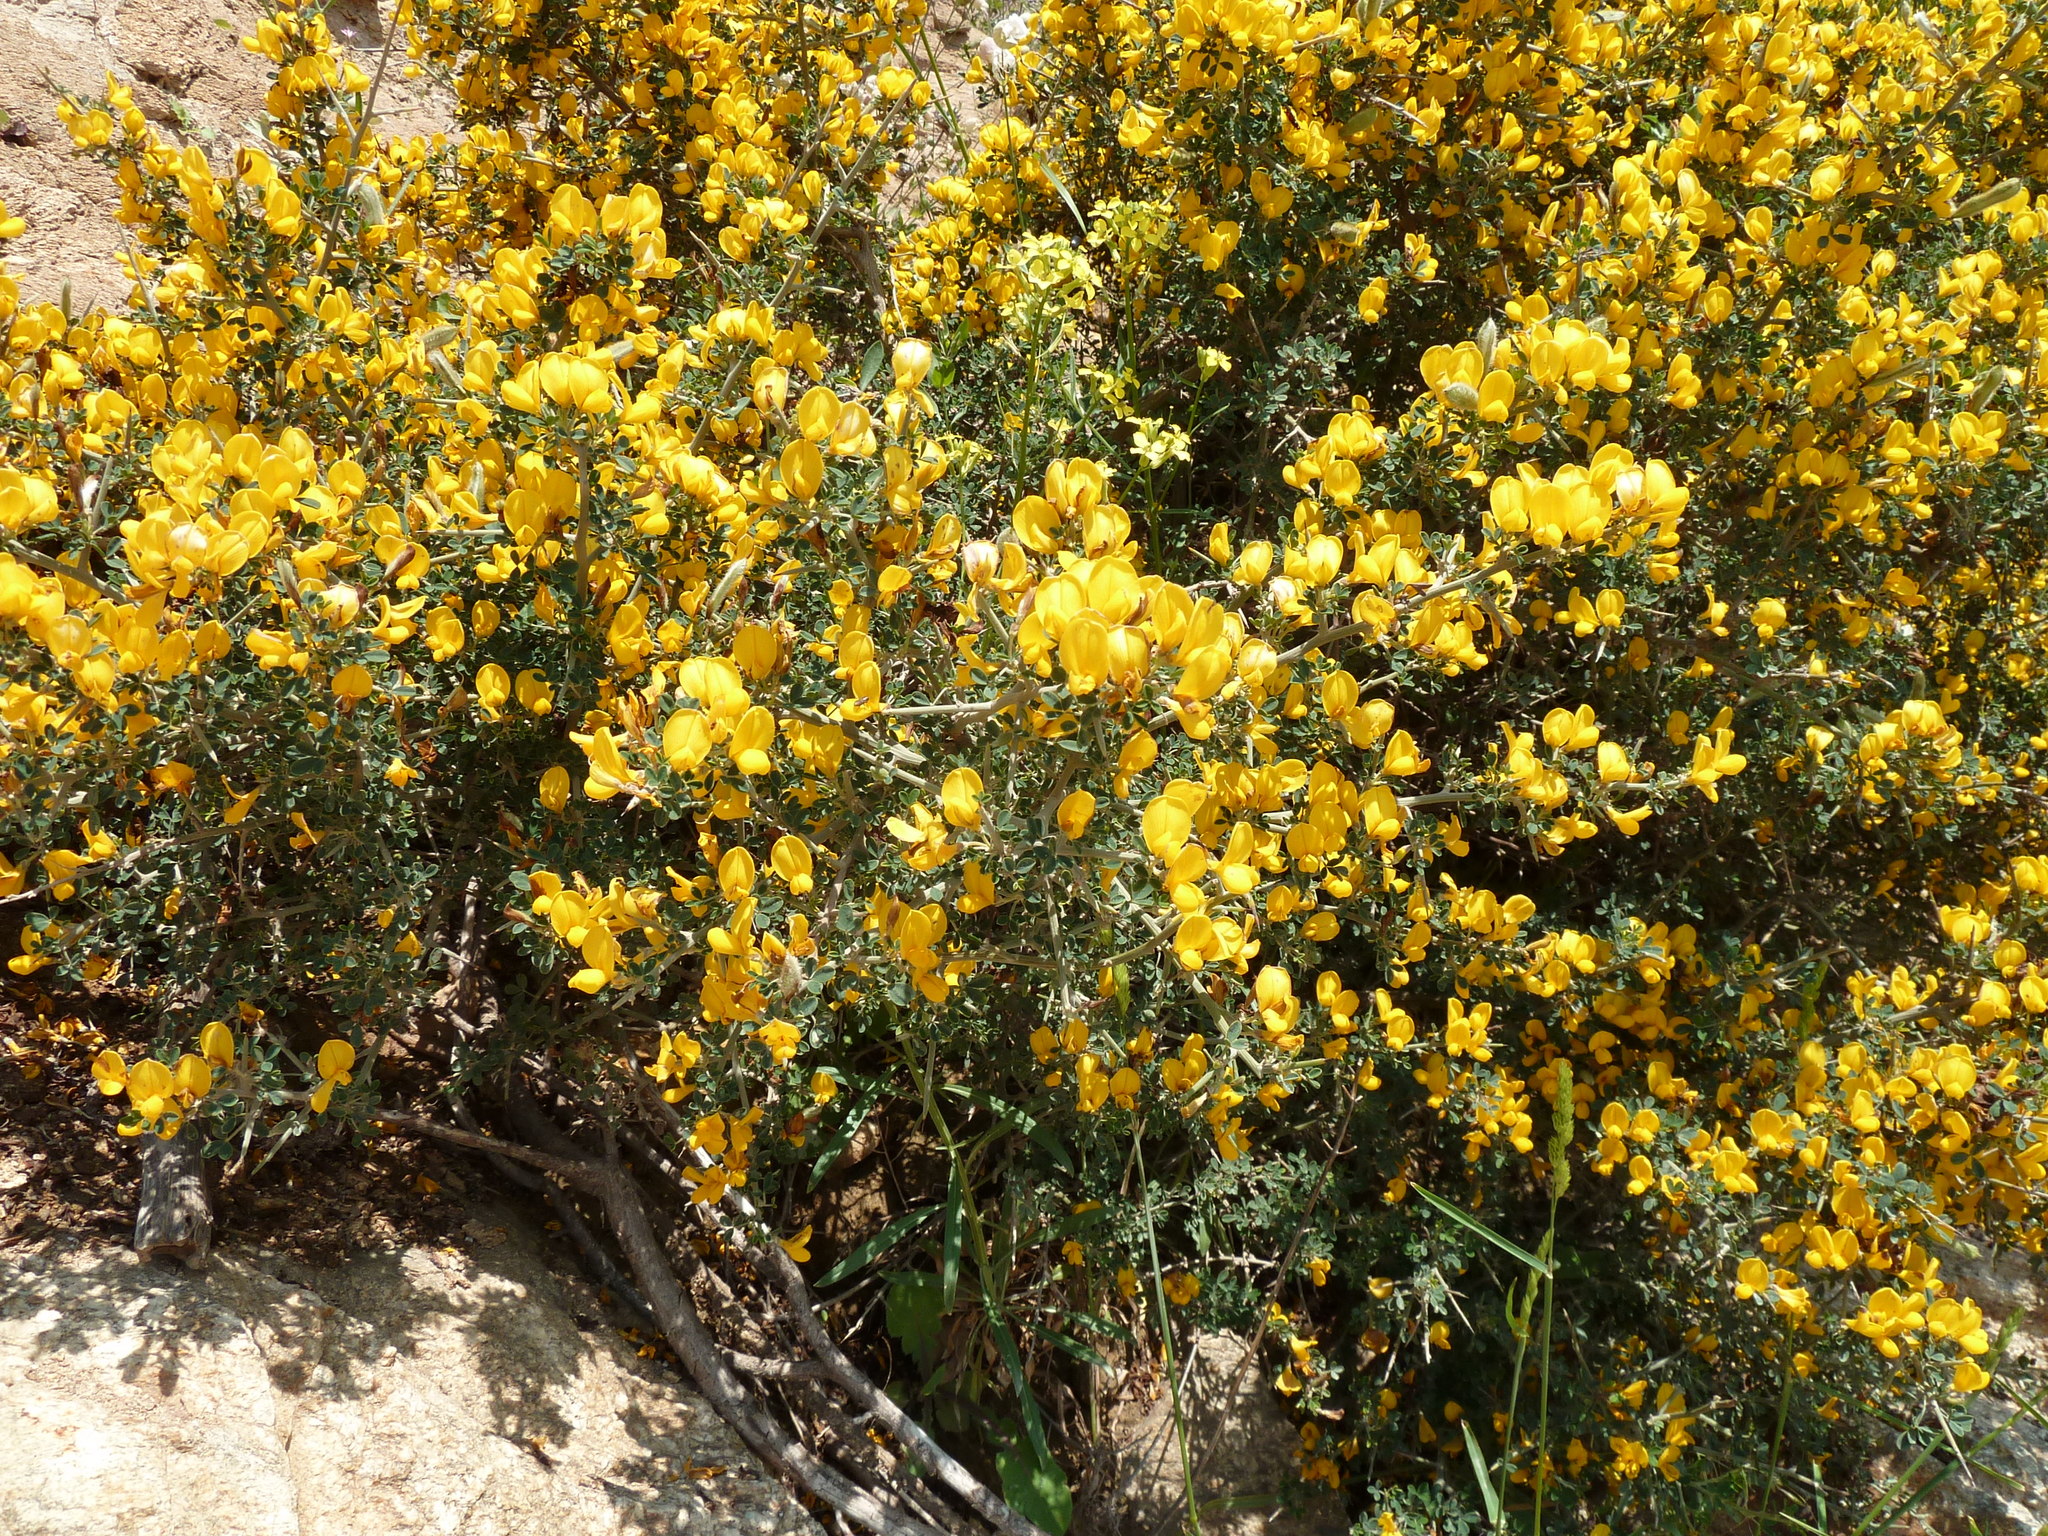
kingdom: Plantae
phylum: Tracheophyta
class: Magnoliopsida
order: Fabales
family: Fabaceae
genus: Calicotome
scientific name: Calicotome villosa
